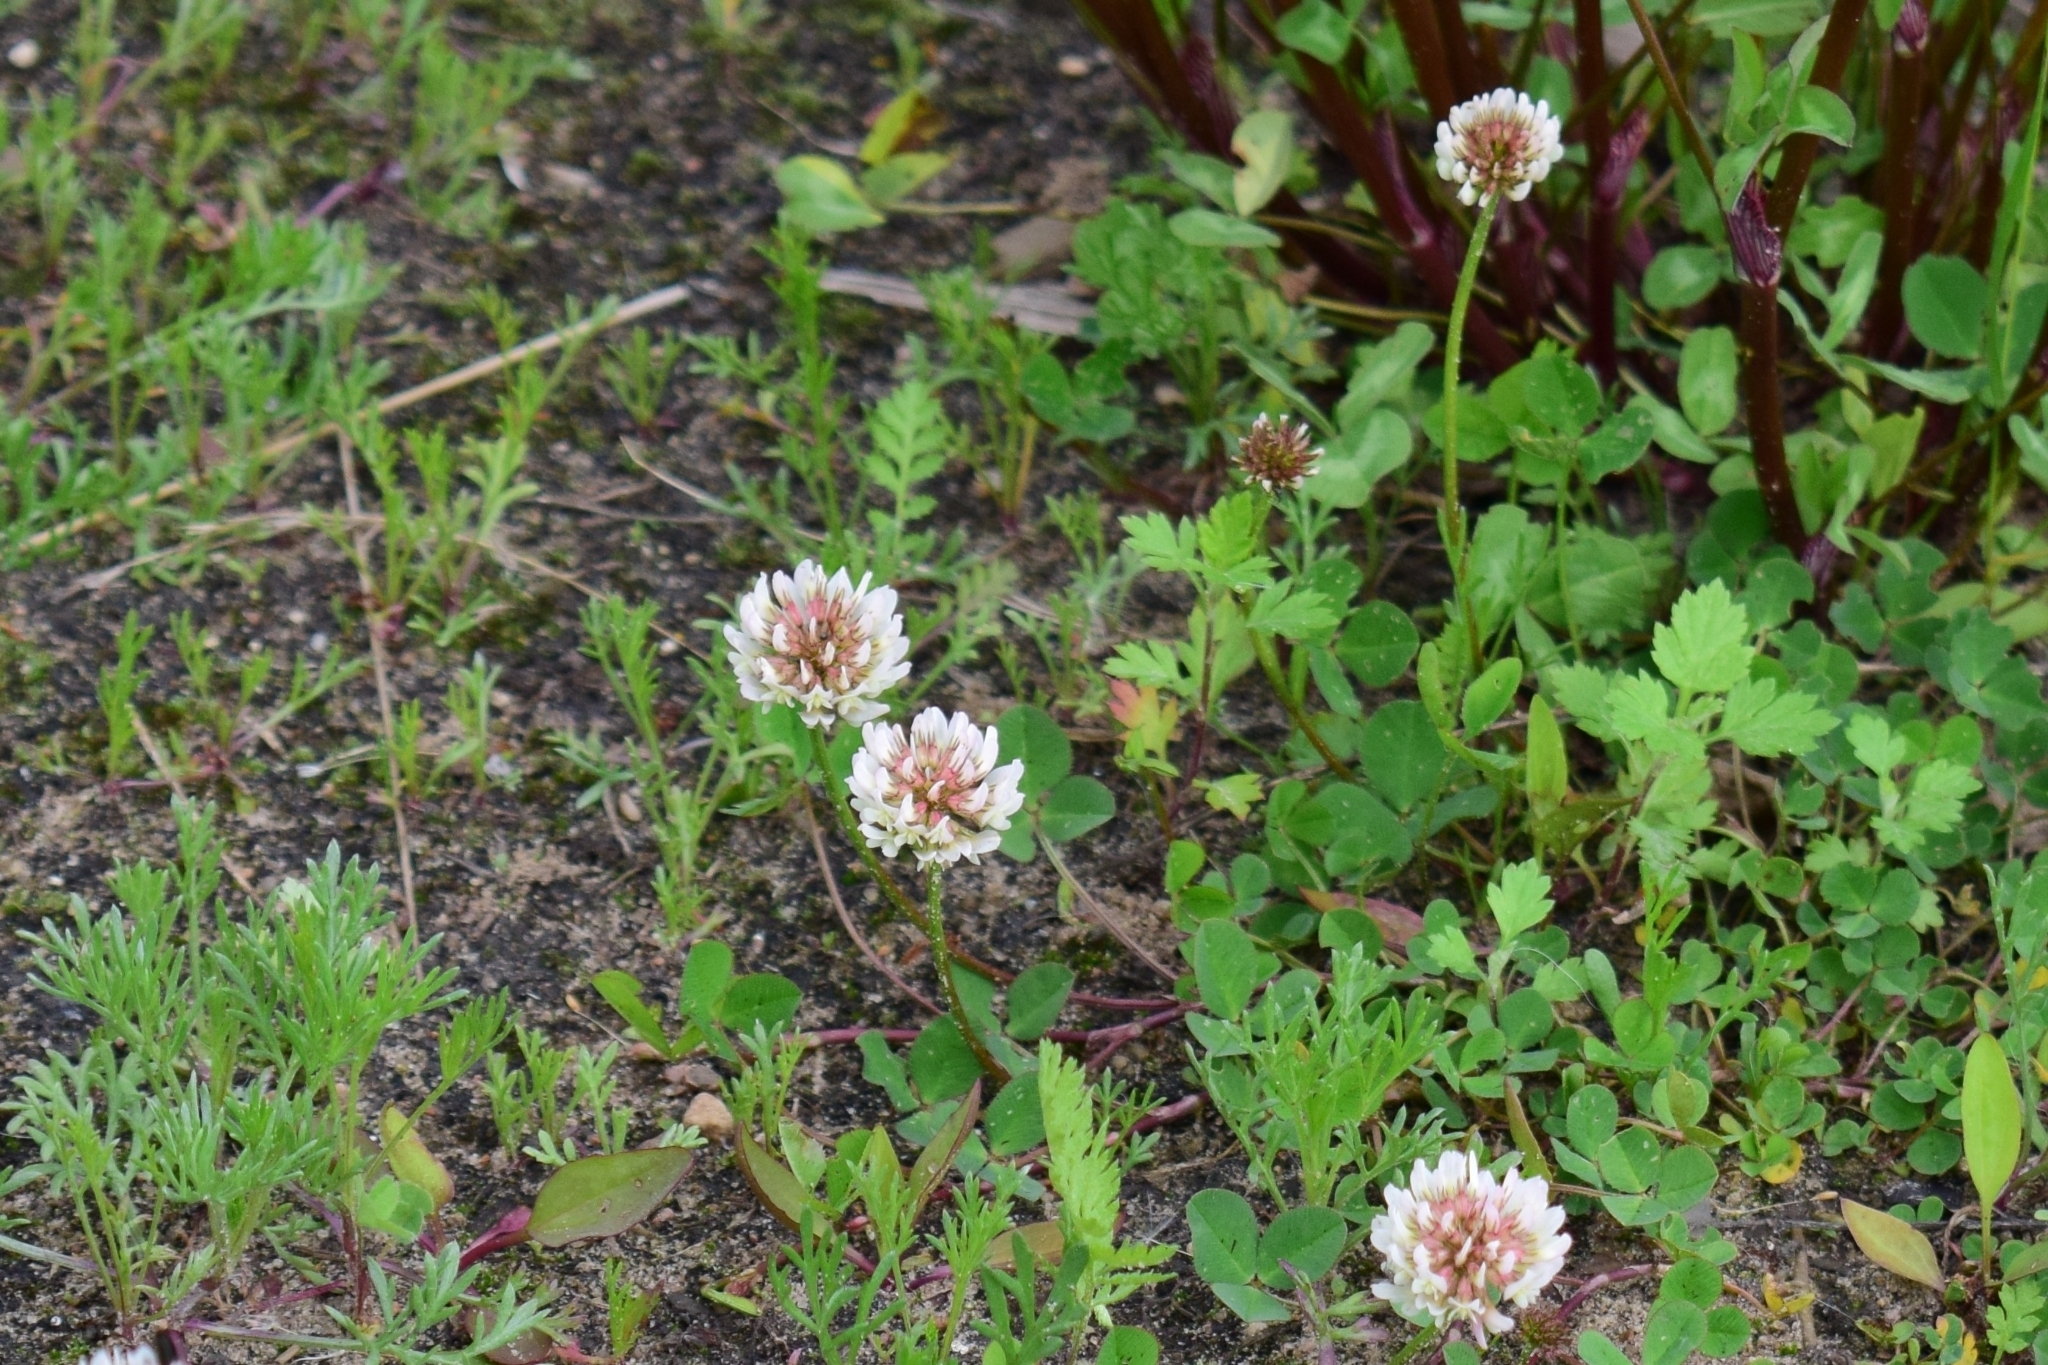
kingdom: Plantae
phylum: Tracheophyta
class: Magnoliopsida
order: Fabales
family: Fabaceae
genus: Trifolium
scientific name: Trifolium repens
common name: White clover
